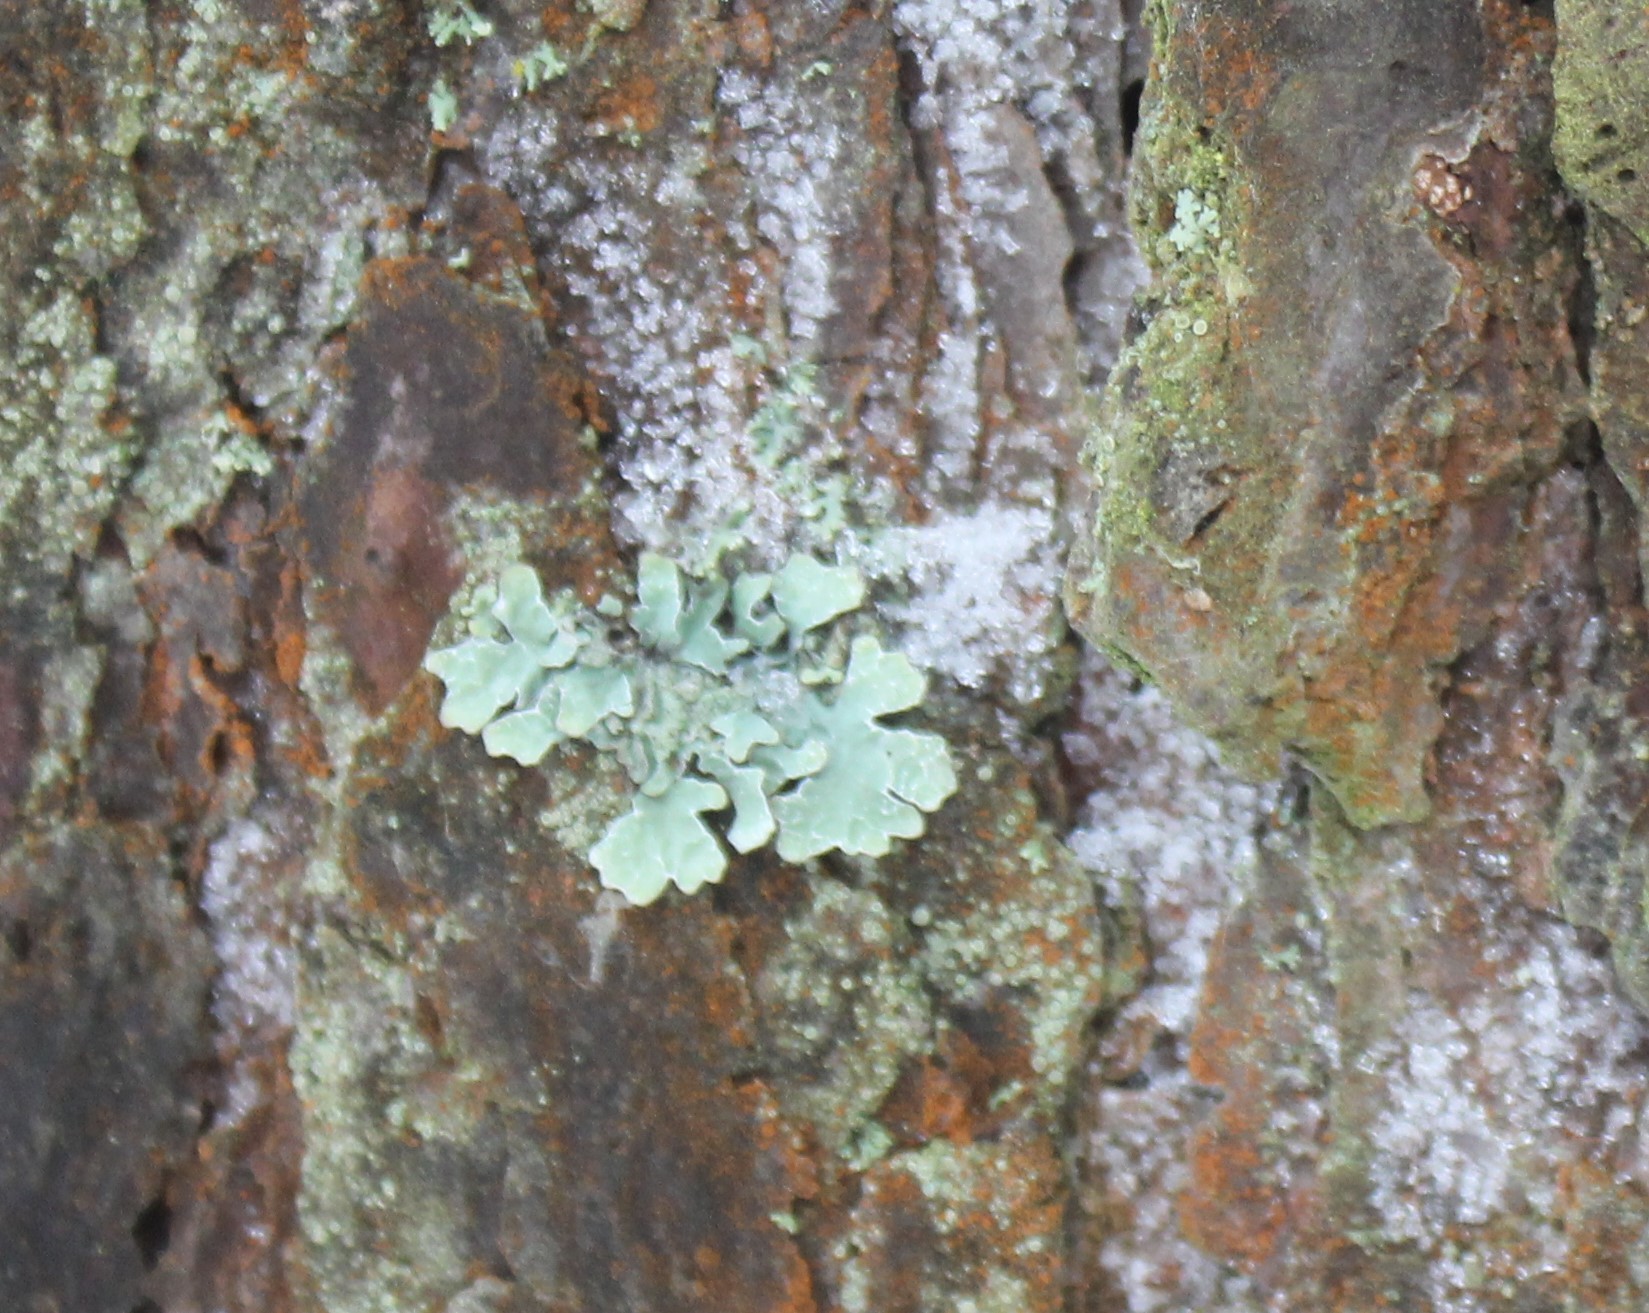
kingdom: Fungi
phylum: Ascomycota
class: Lecanoromycetes
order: Lecanorales
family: Parmeliaceae
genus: Parmelia
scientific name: Parmelia sulcata
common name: Netted shield lichen
